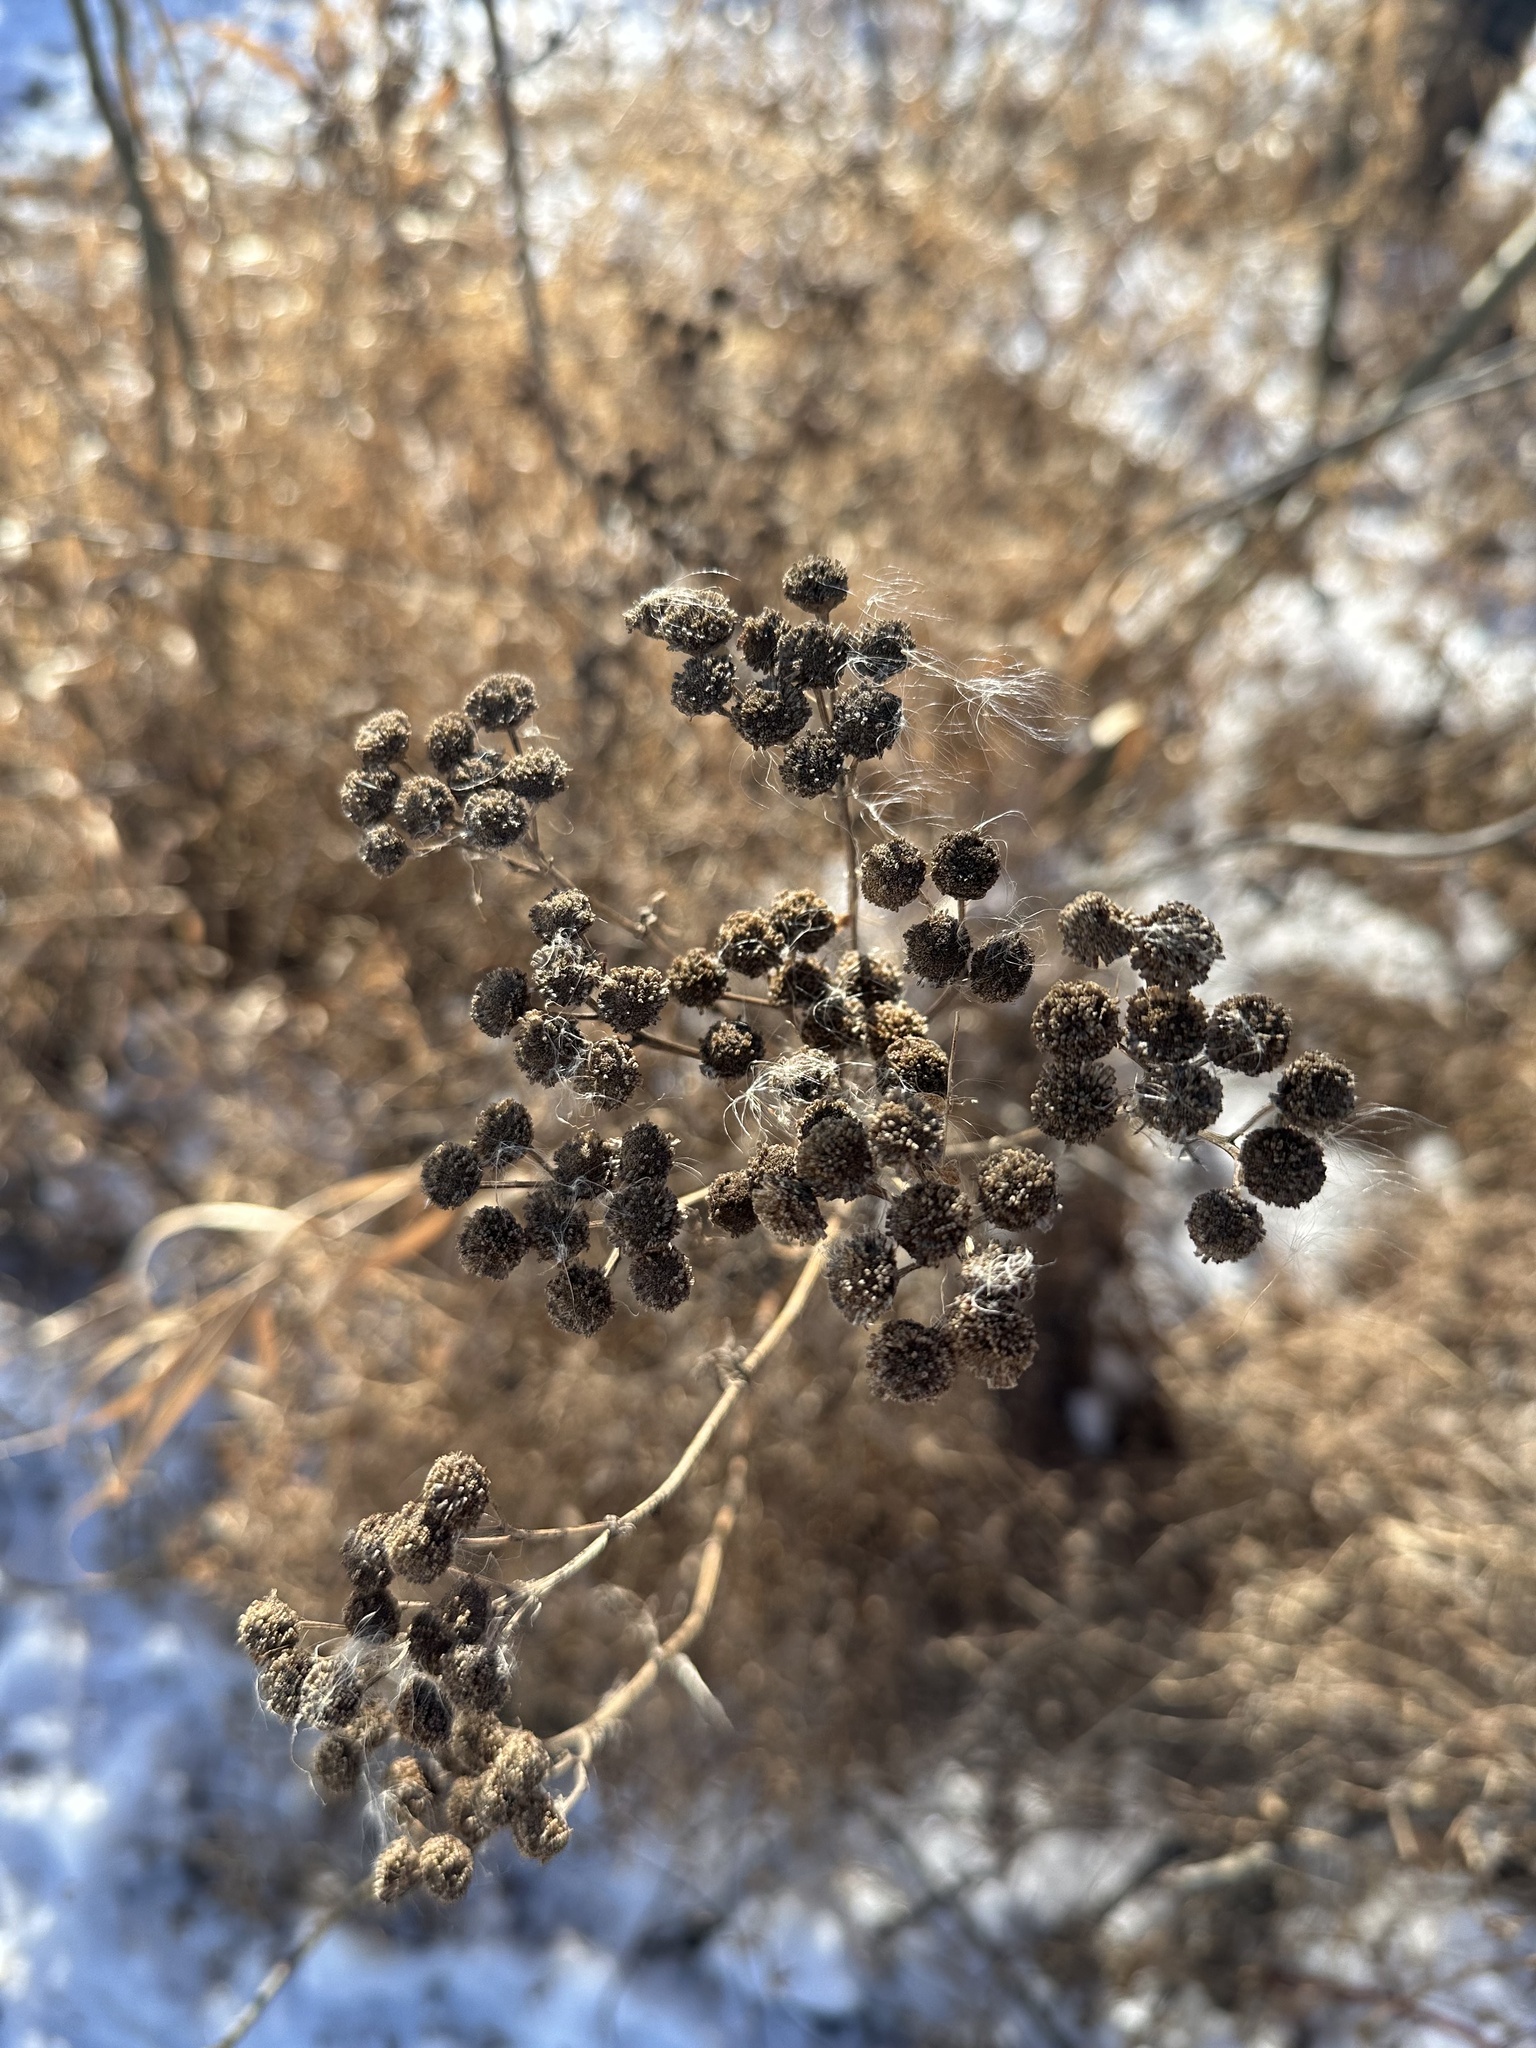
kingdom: Plantae
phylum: Tracheophyta
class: Magnoliopsida
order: Asterales
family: Asteraceae
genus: Tanacetum
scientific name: Tanacetum vulgare
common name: Common tansy
